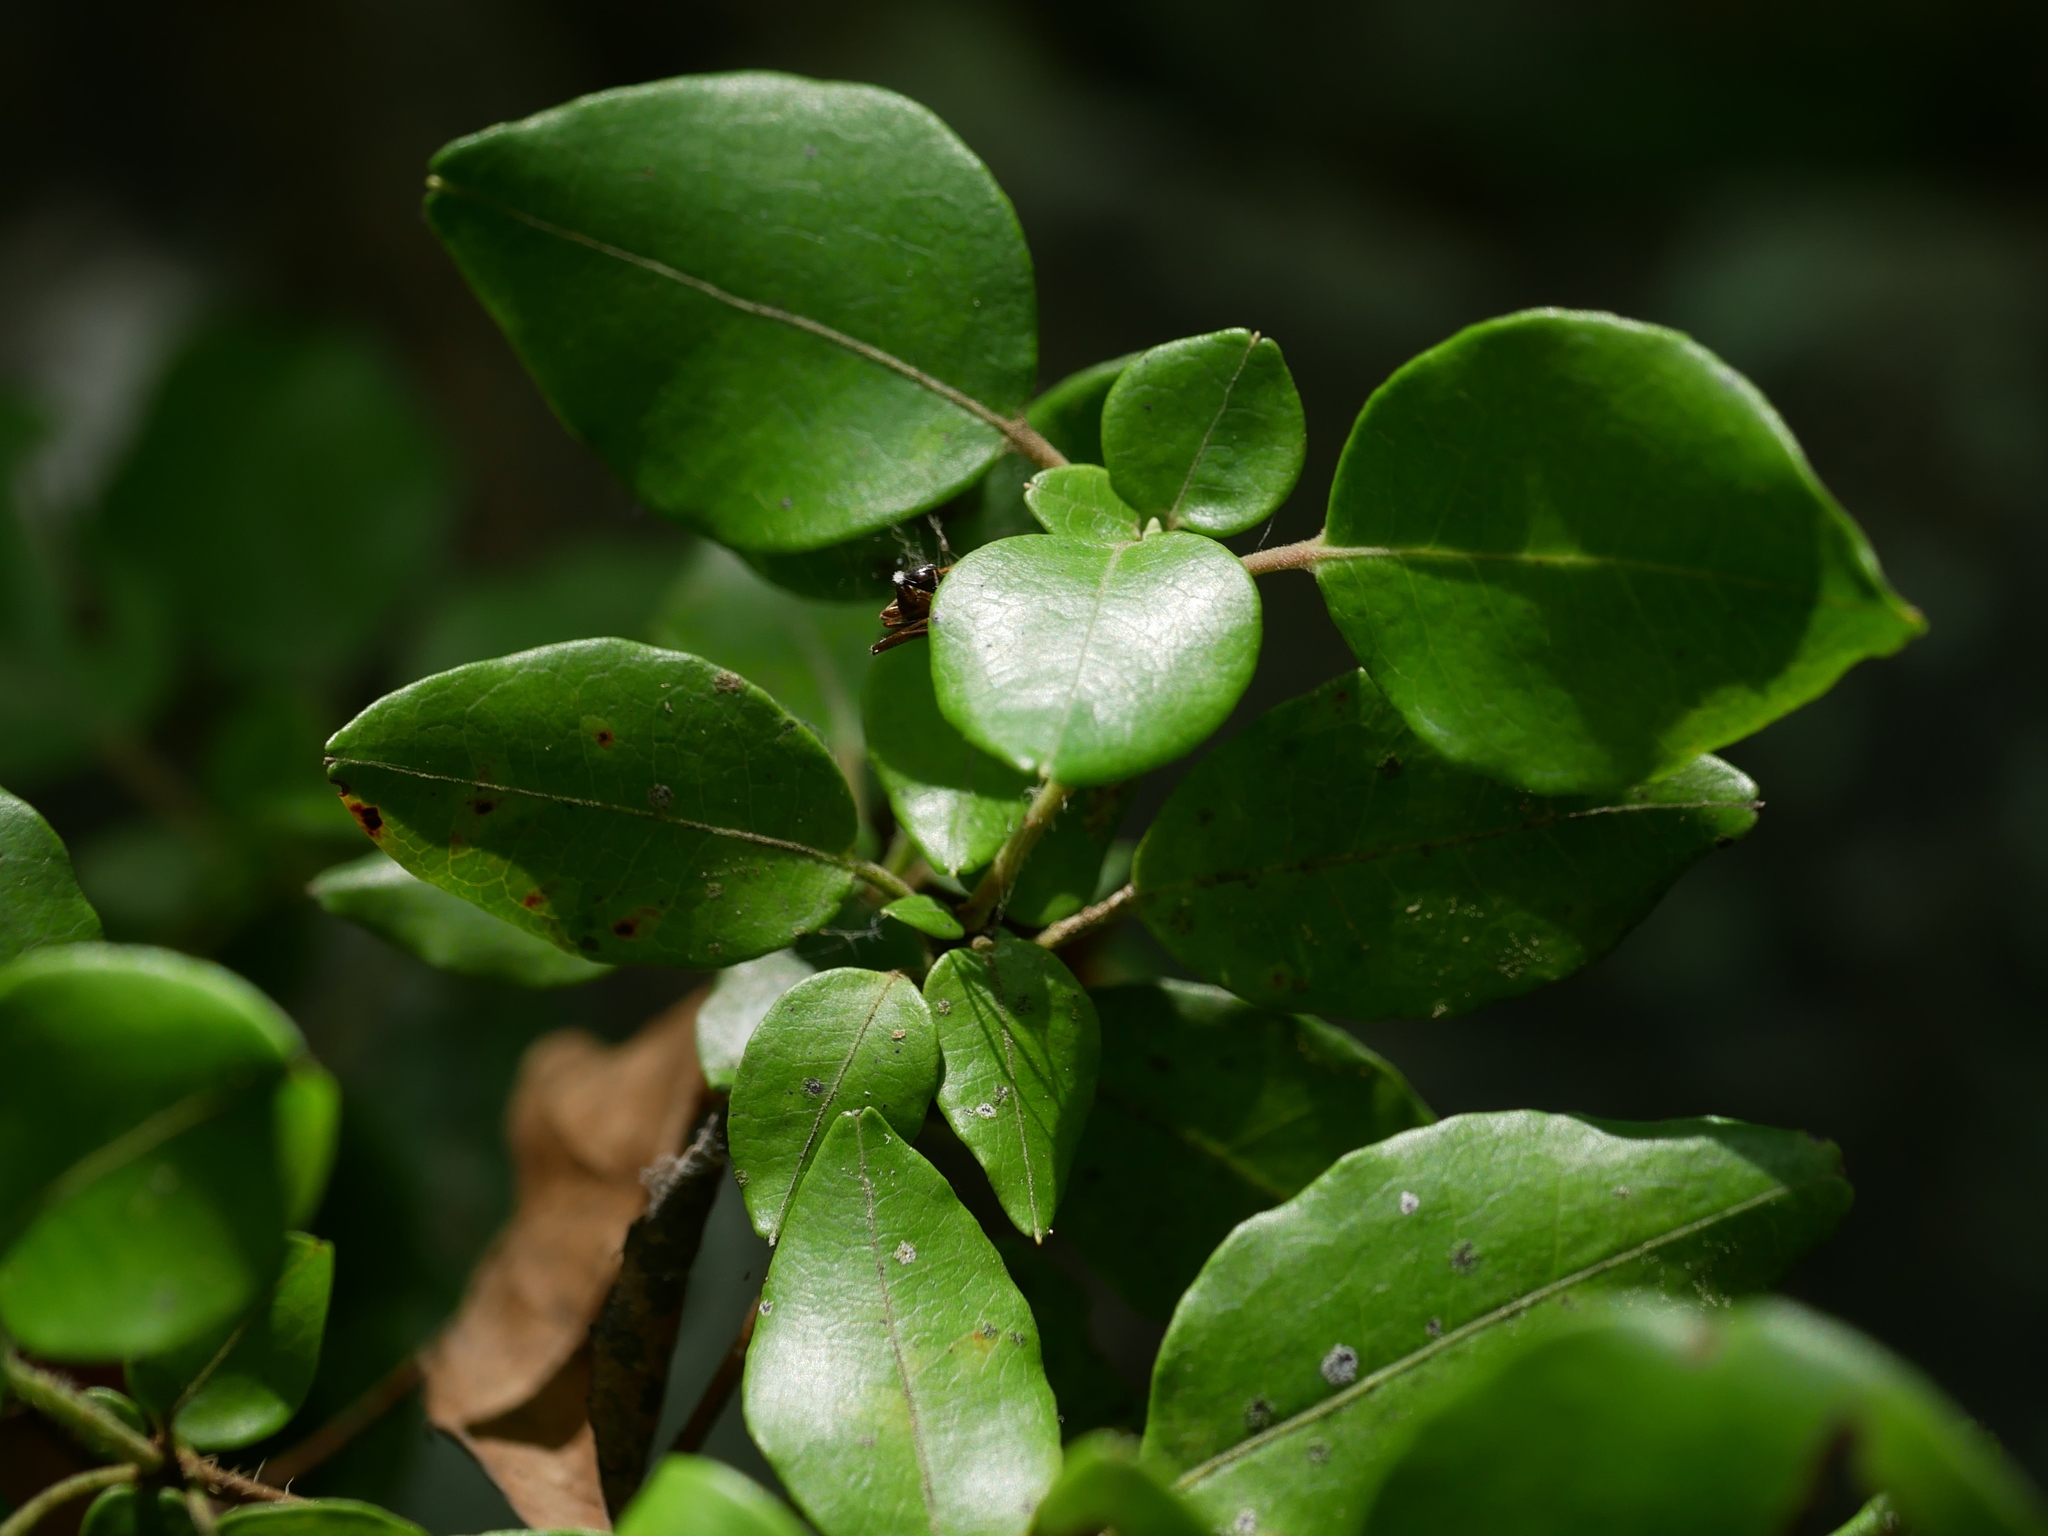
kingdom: Plantae
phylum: Tracheophyta
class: Magnoliopsida
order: Ericales
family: Ericaceae
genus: Rhododendron
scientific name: Rhododendron ovatum
